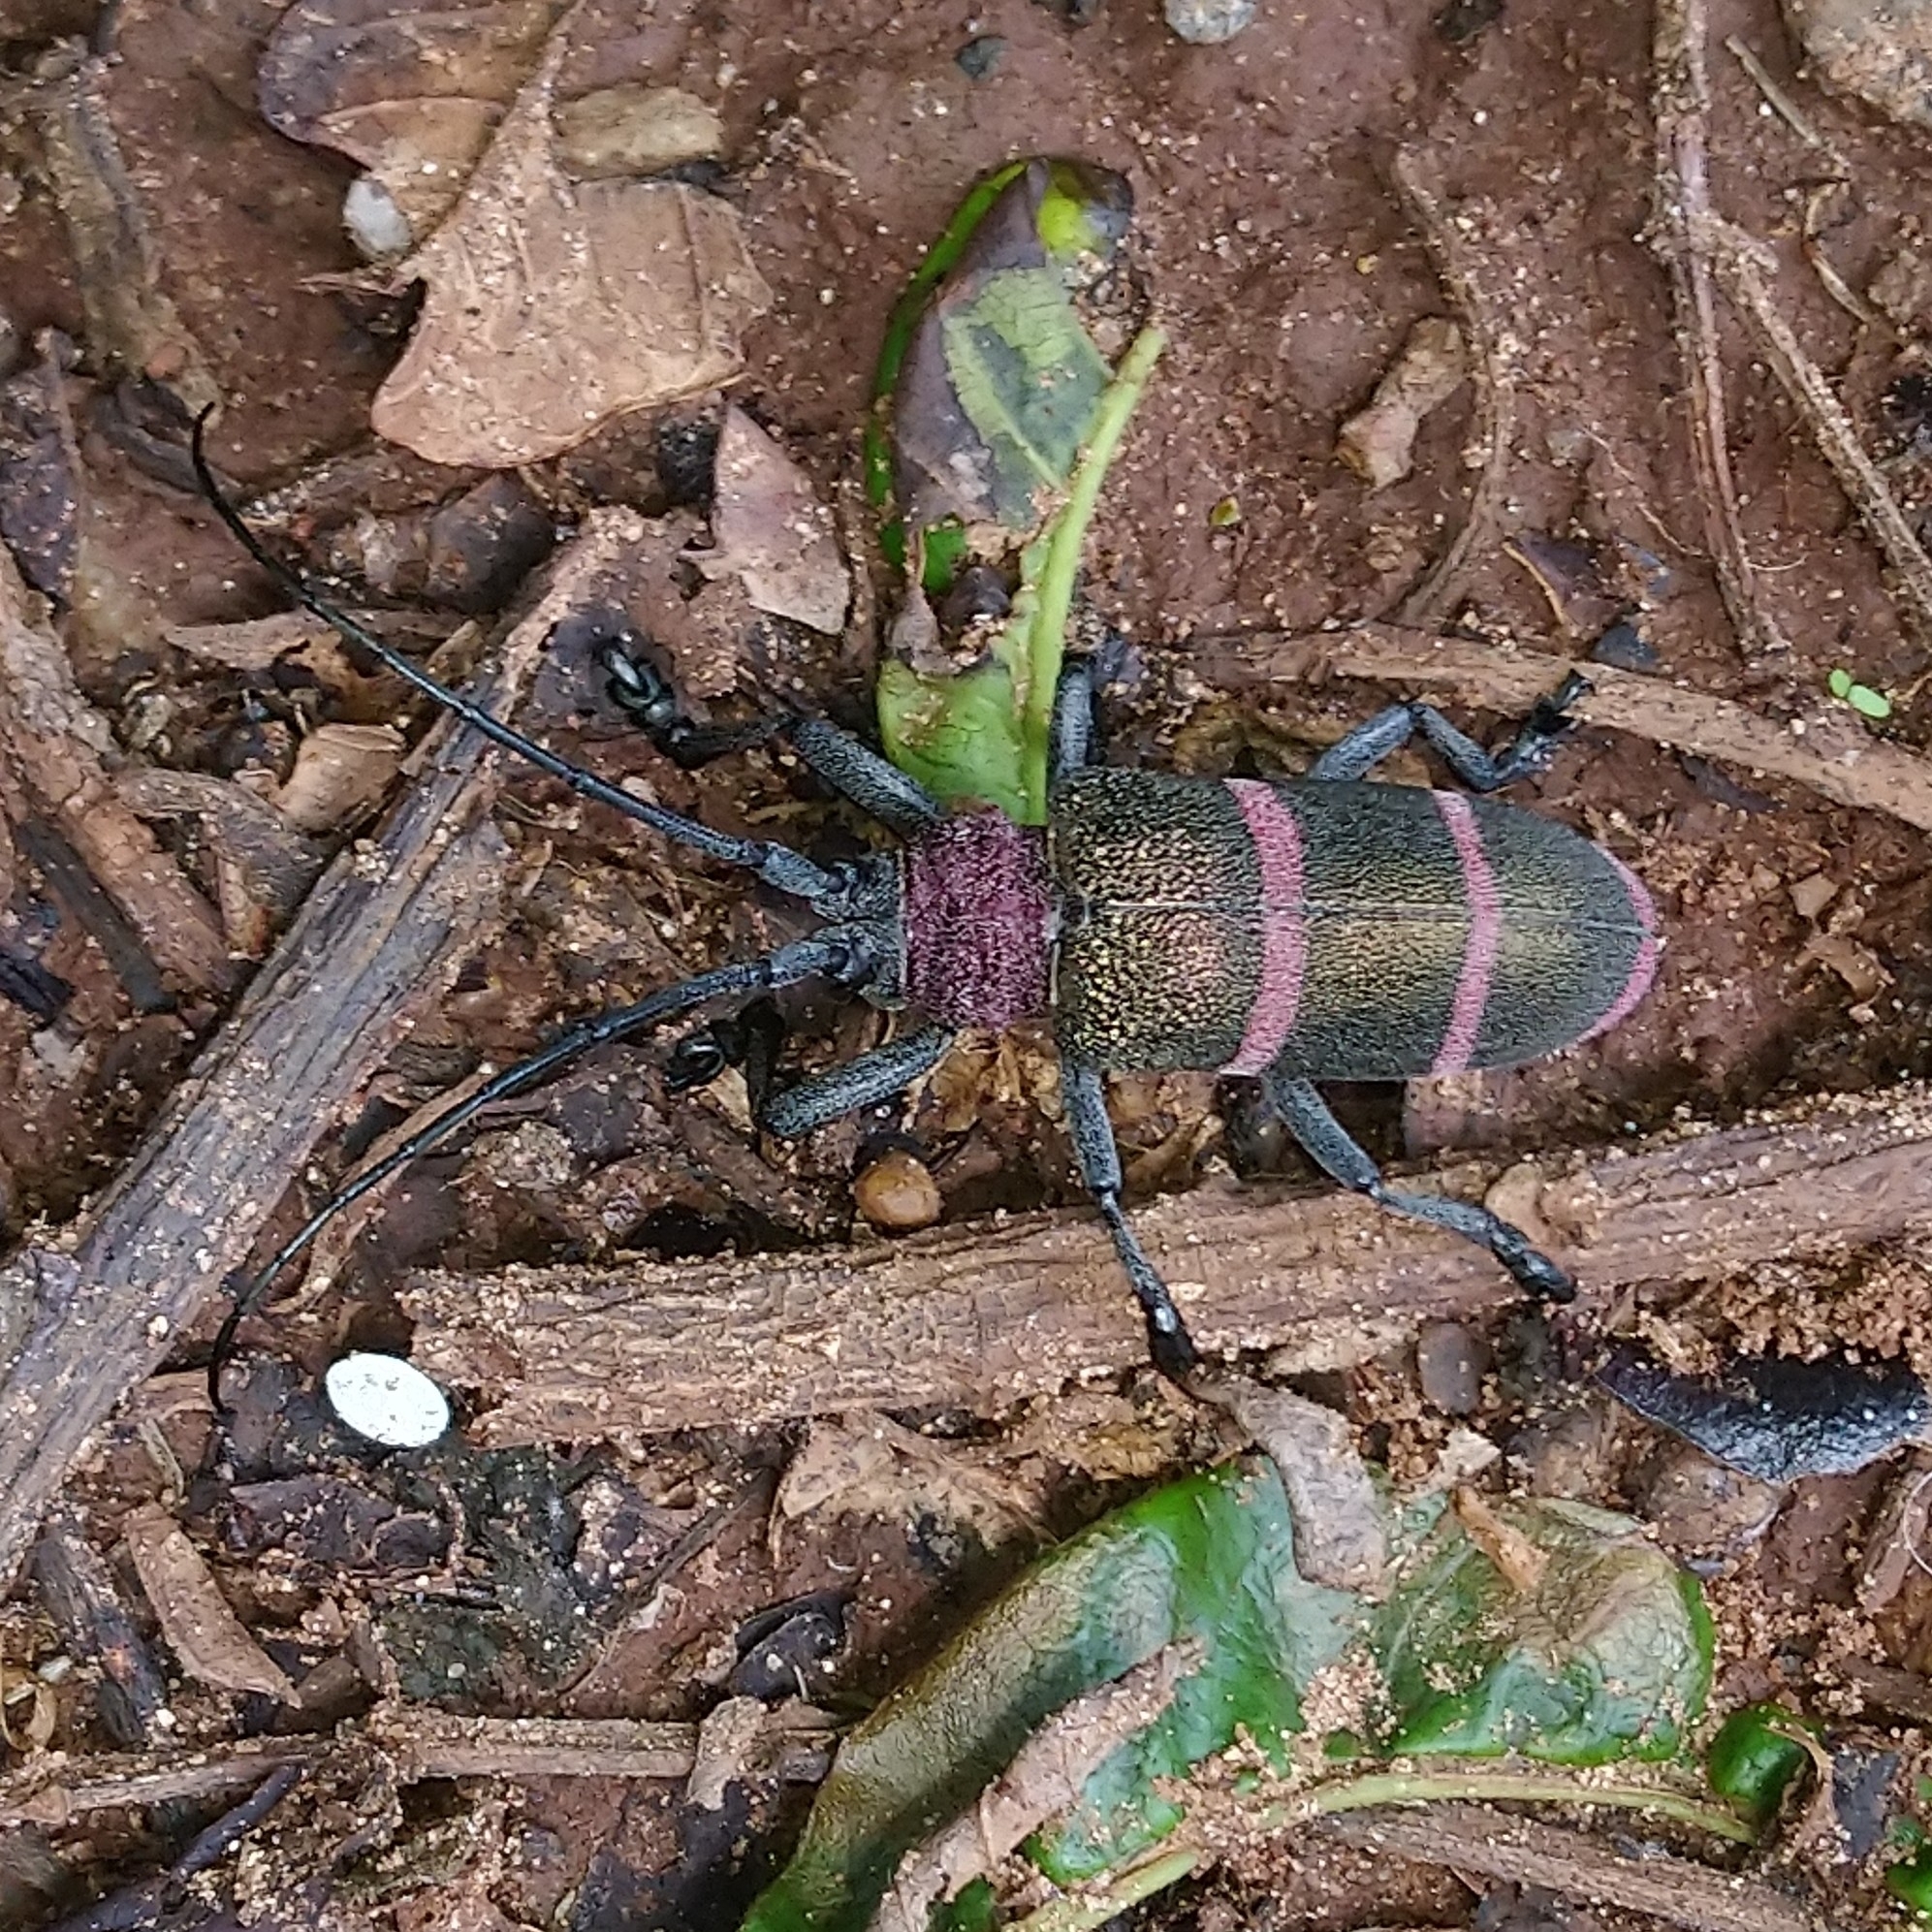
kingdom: Animalia
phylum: Arthropoda
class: Insecta
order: Coleoptera
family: Cerambycidae
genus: Ceroplesis
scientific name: Ceroplesis sumptuosa
